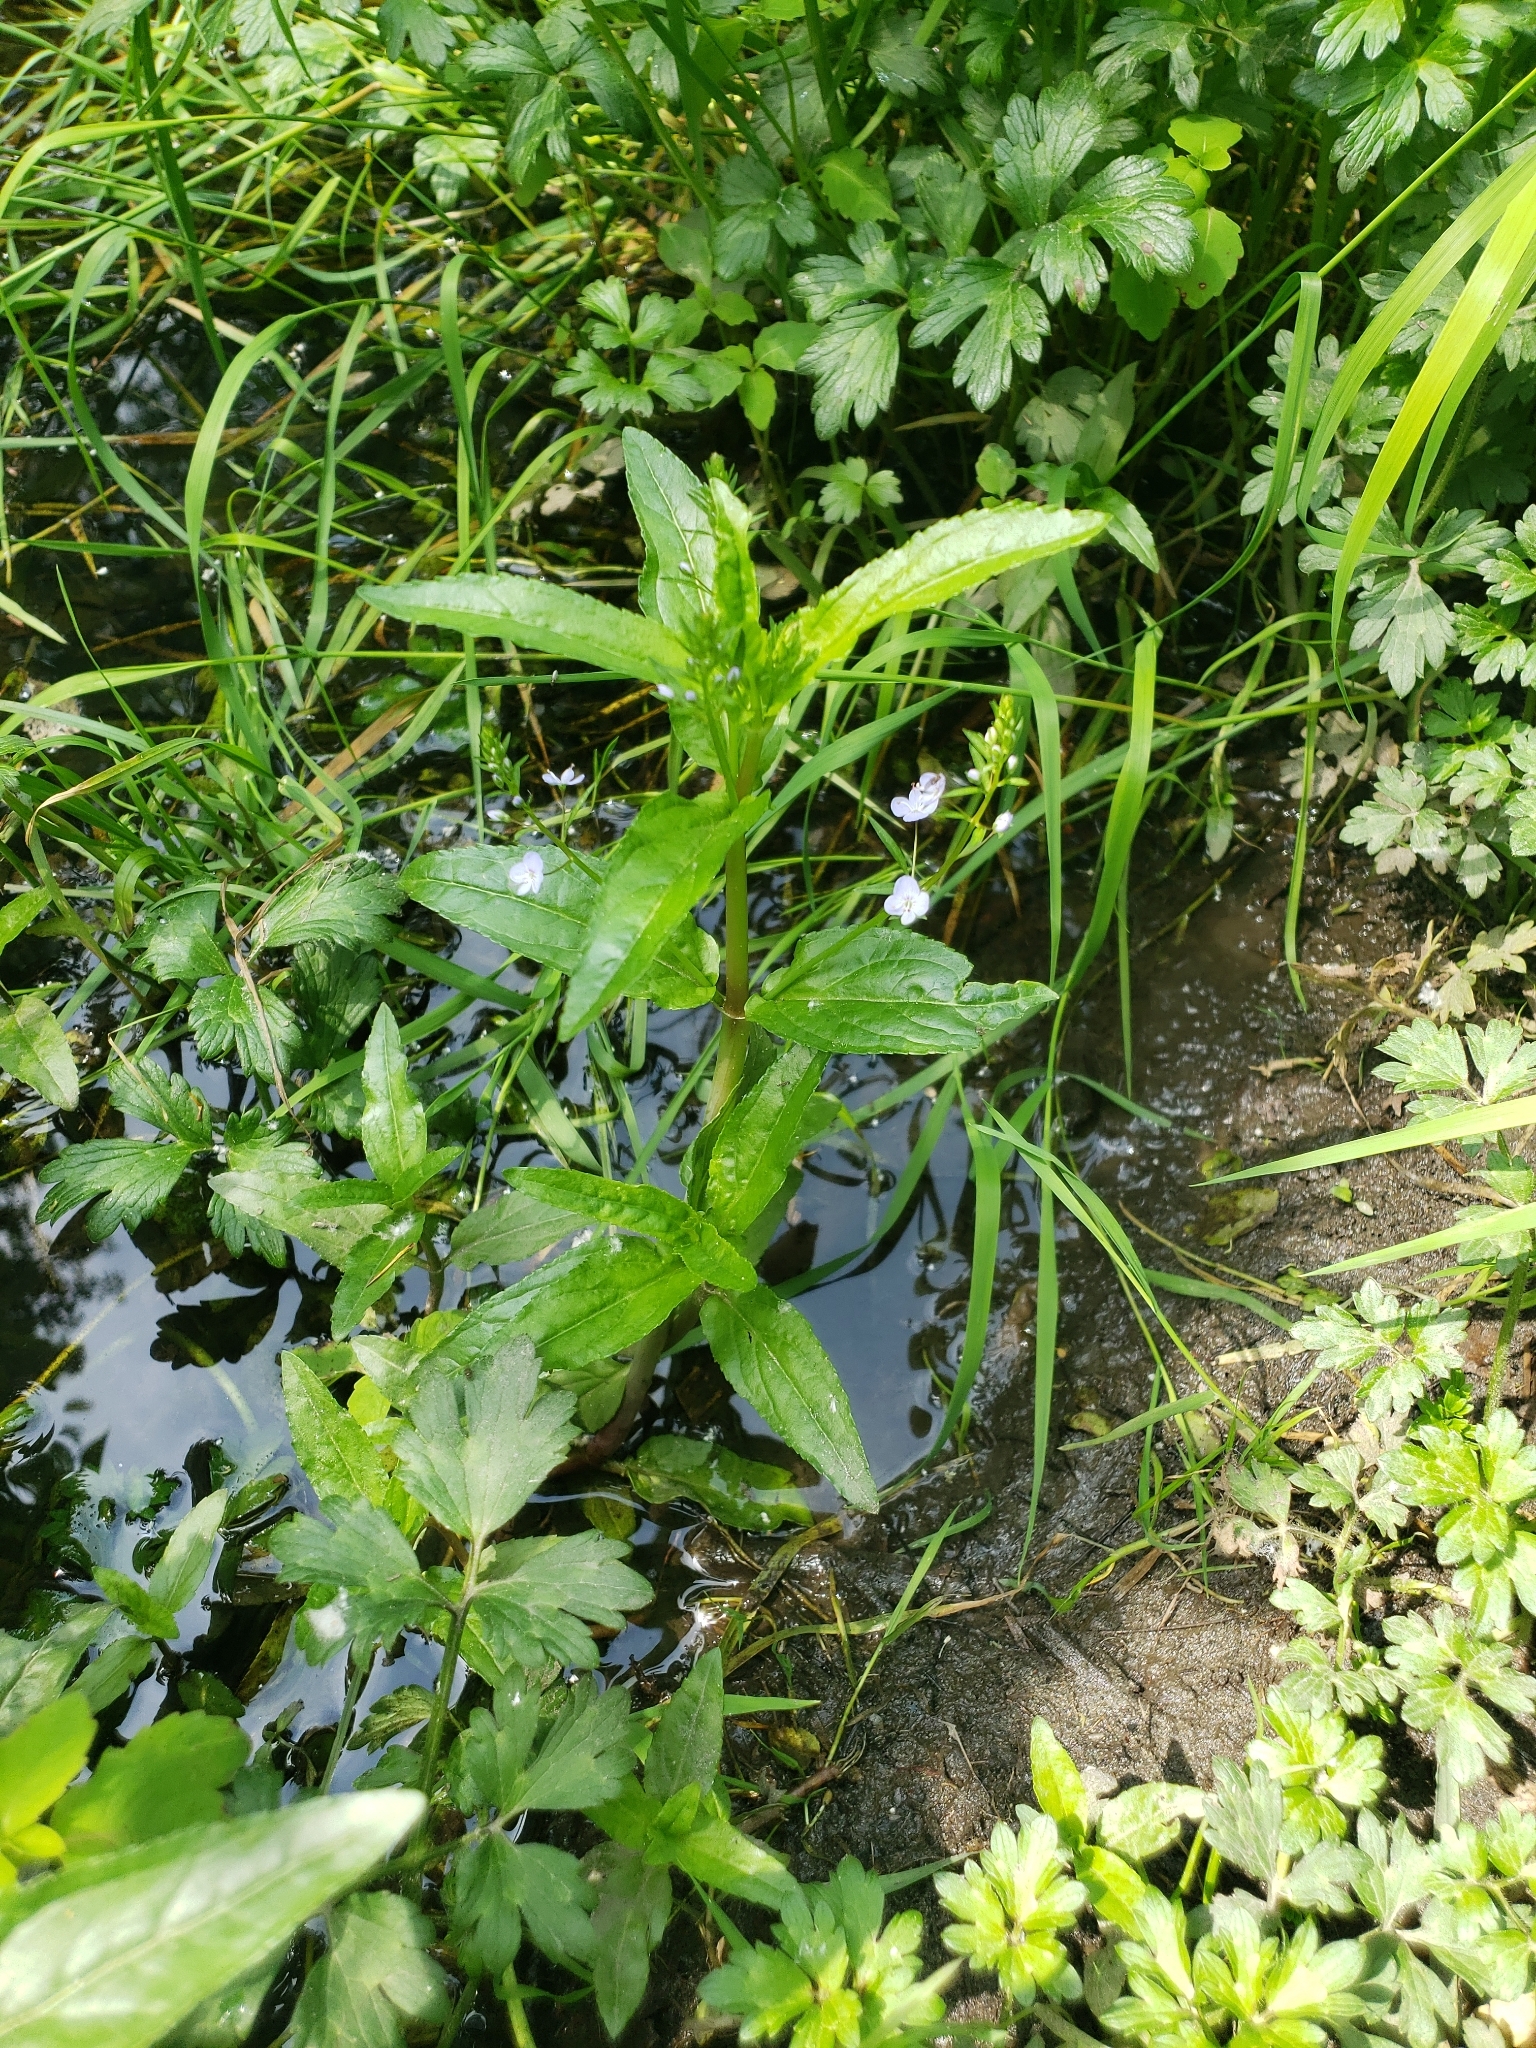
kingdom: Plantae
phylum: Tracheophyta
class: Magnoliopsida
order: Lamiales
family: Plantaginaceae
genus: Veronica
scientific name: Veronica americana
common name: American brooklime
